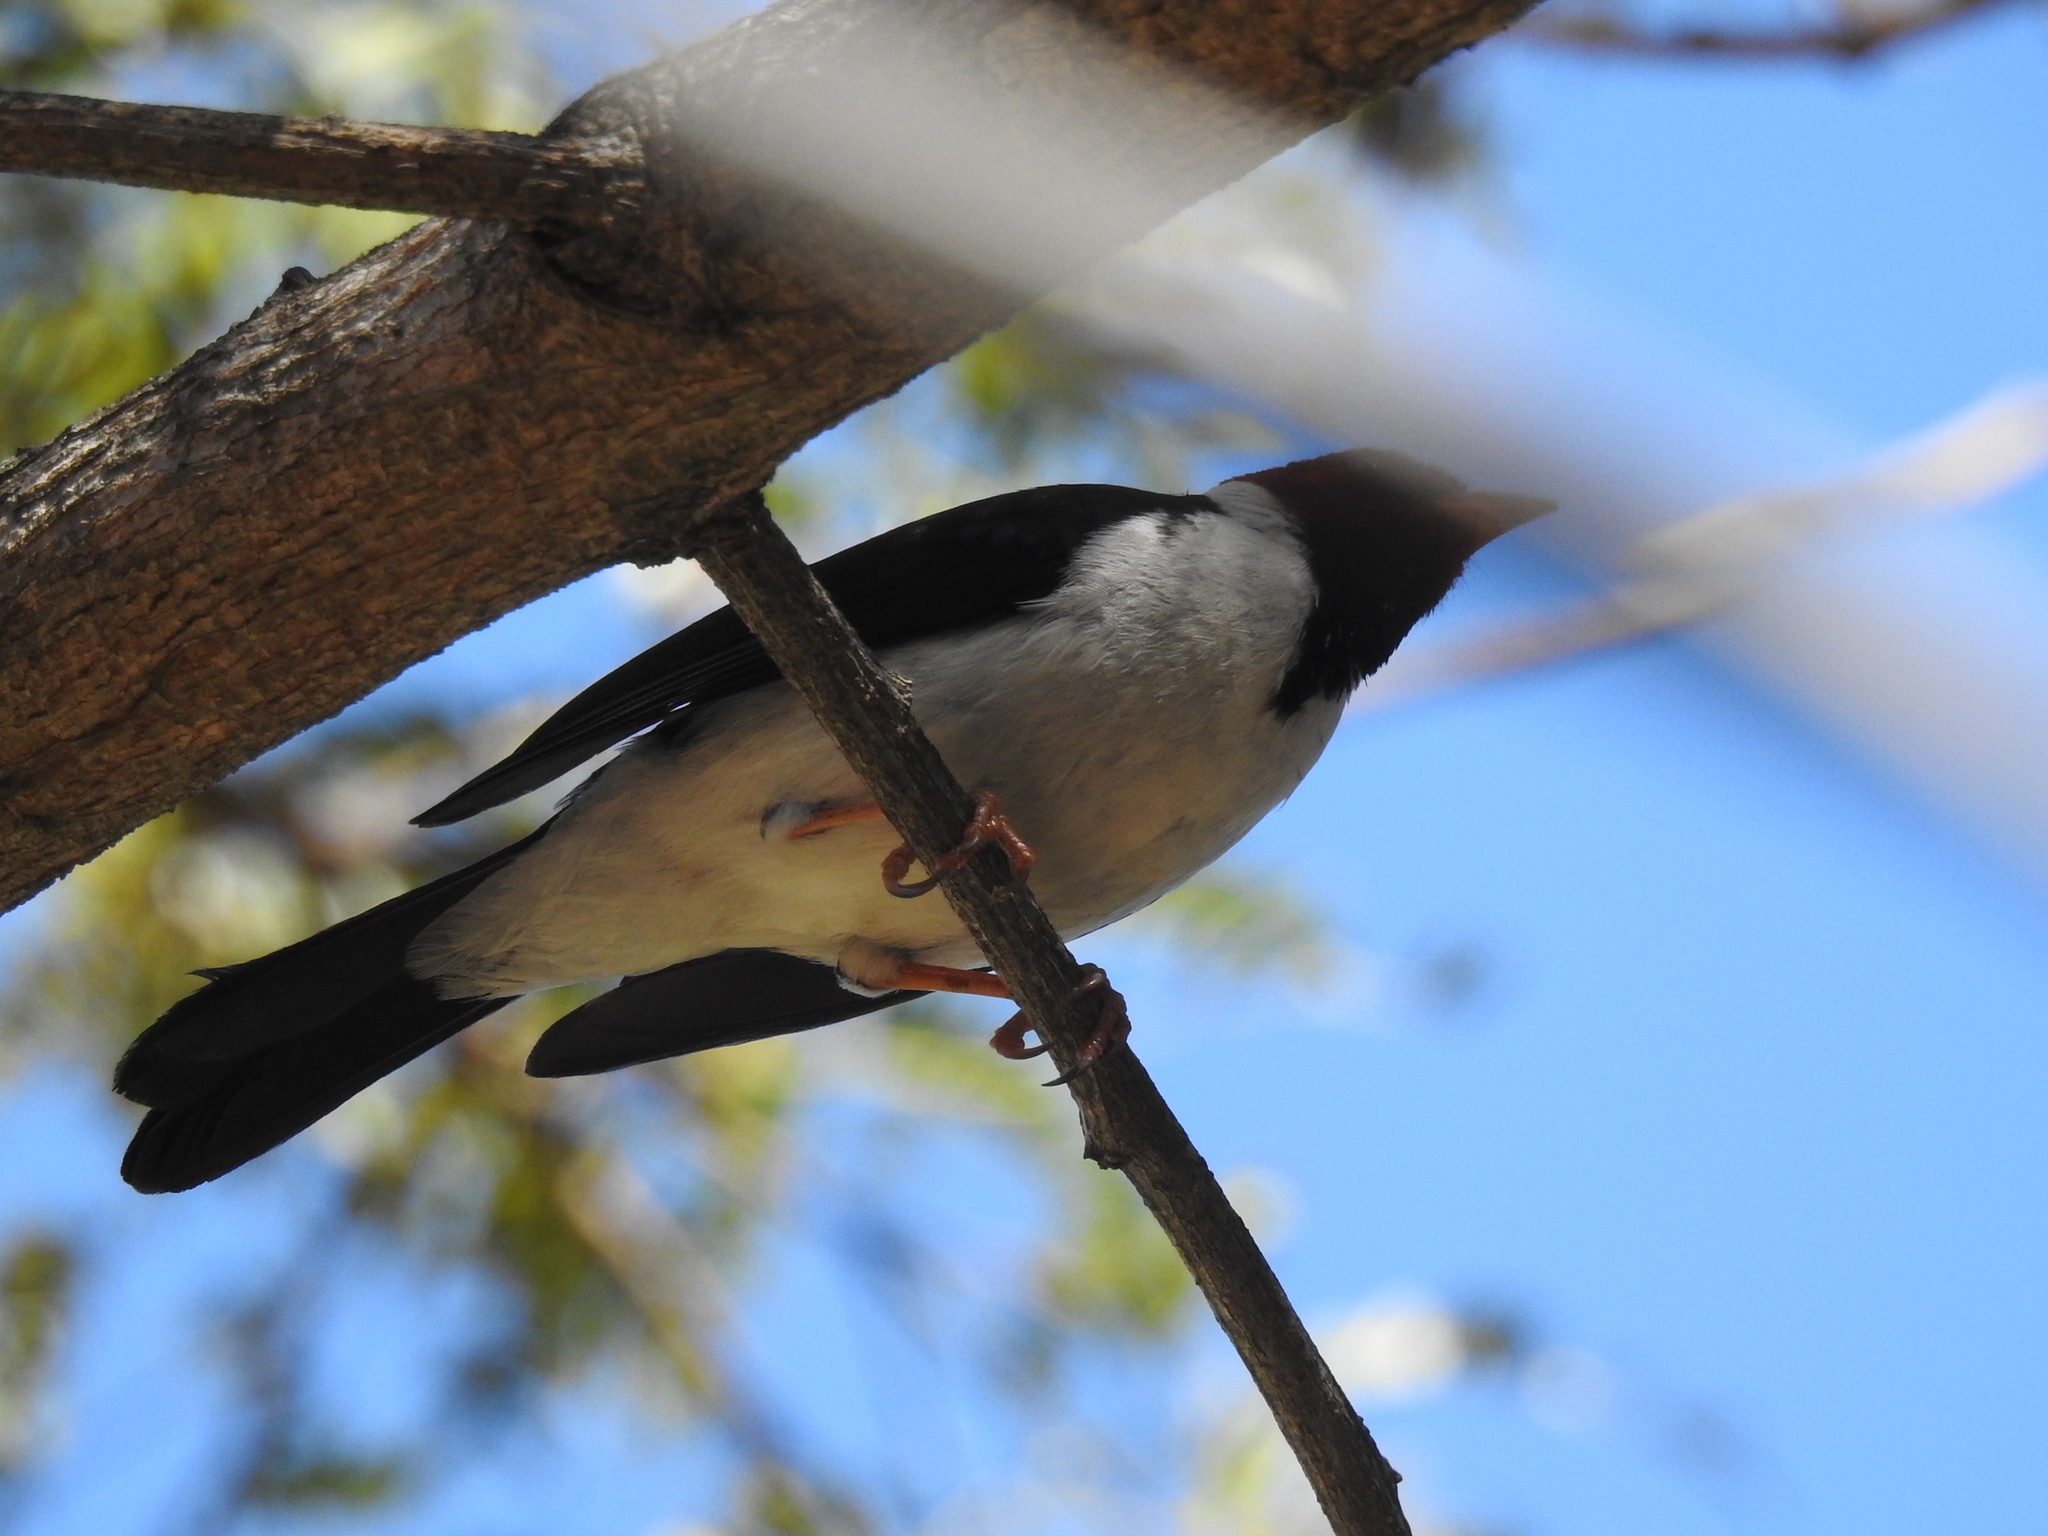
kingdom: Animalia
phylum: Chordata
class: Aves
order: Passeriformes
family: Thraupidae
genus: Paroaria
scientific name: Paroaria capitata
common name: Yellow-billed cardinal
